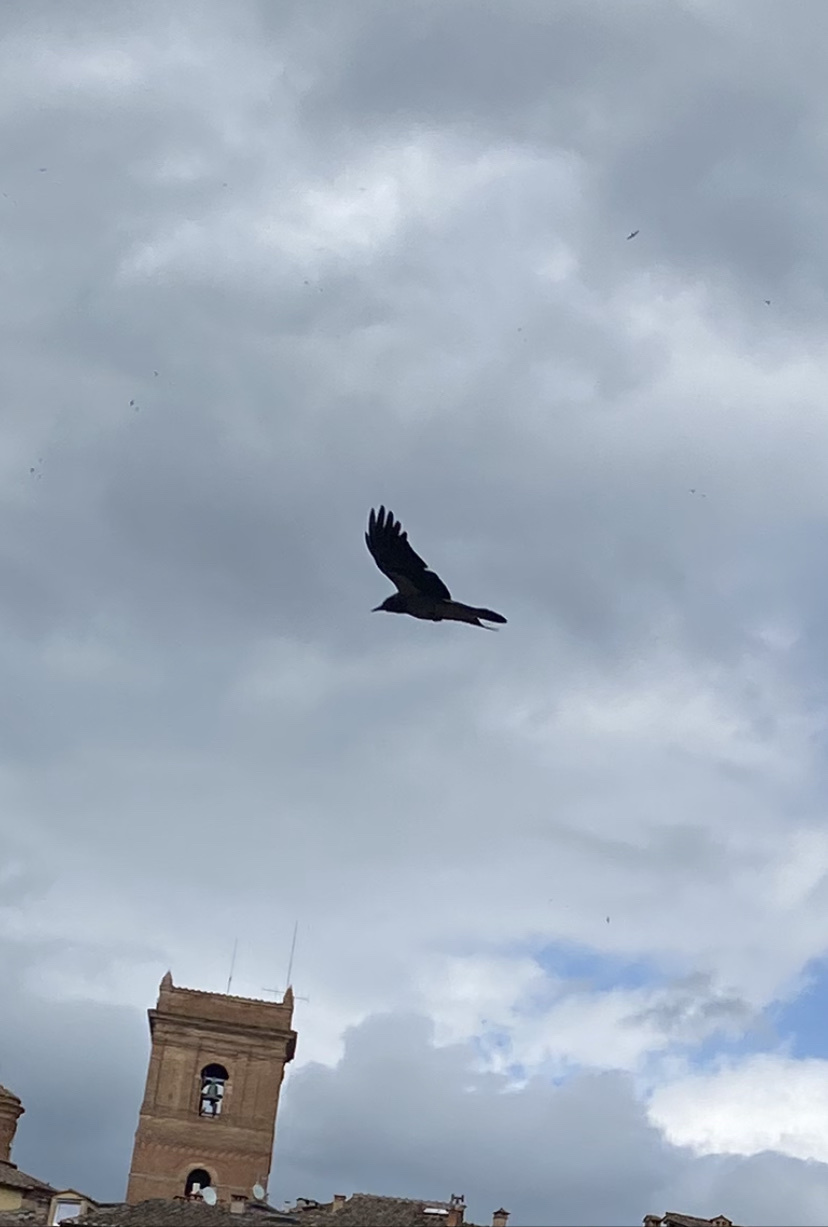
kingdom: Animalia
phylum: Chordata
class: Aves
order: Passeriformes
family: Corvidae
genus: Corvus
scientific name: Corvus cornix
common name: Hooded crow
